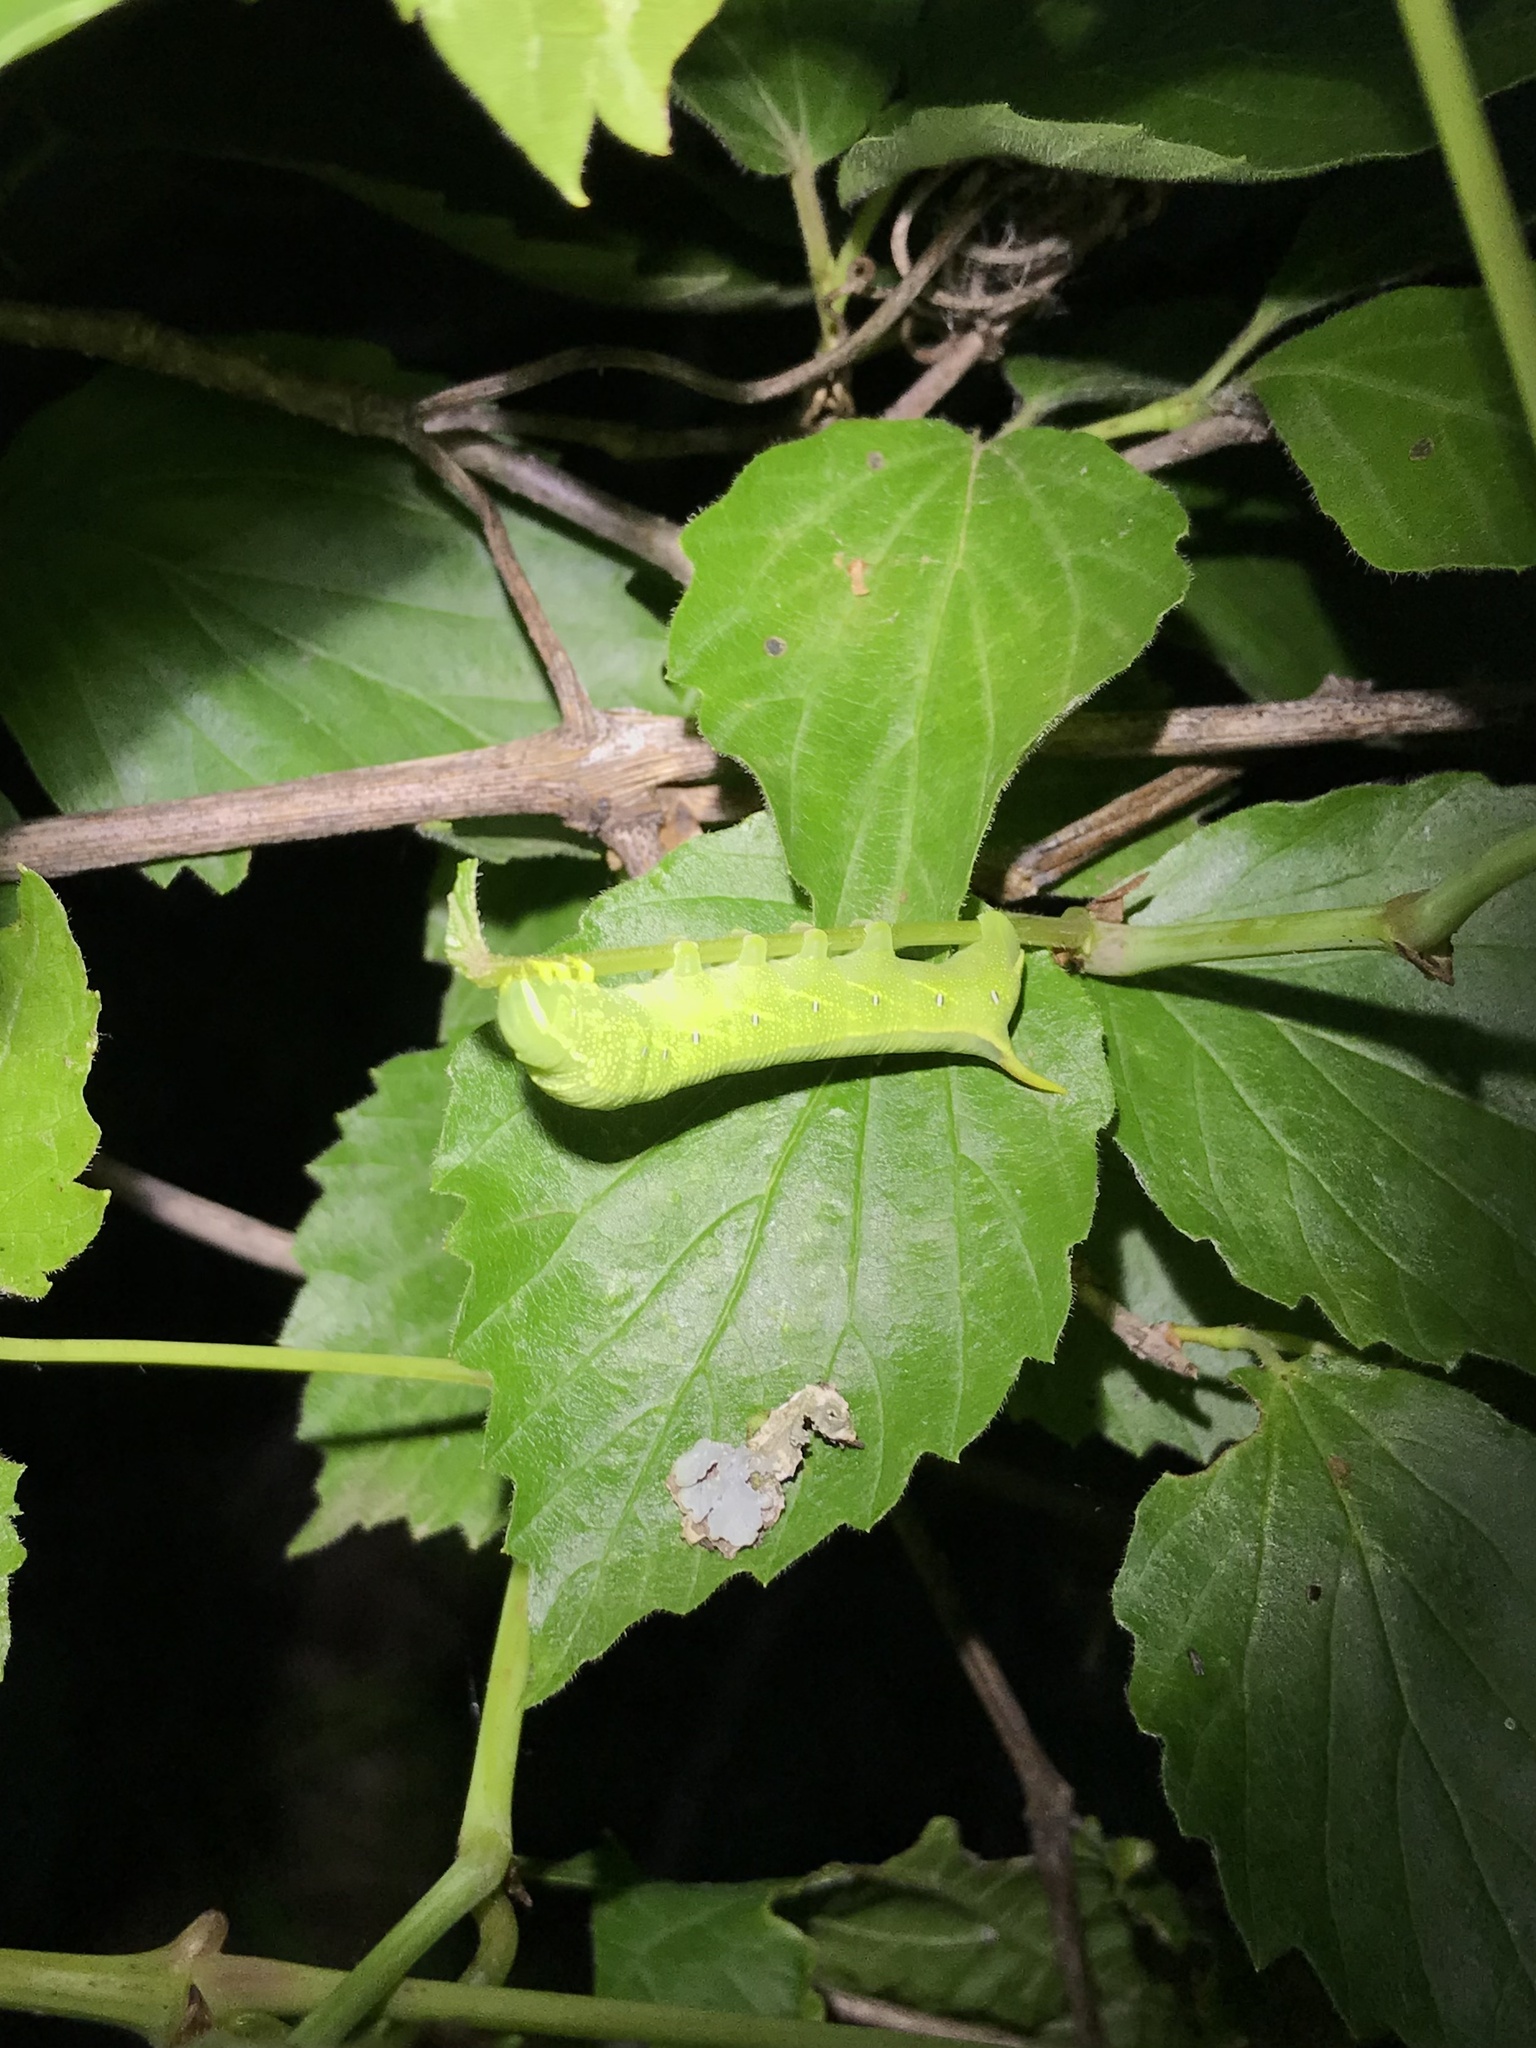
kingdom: Animalia
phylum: Arthropoda
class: Insecta
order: Lepidoptera
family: Sphingidae
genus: Deidamia
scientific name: Deidamia inscriptum
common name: Lettered sphinx
